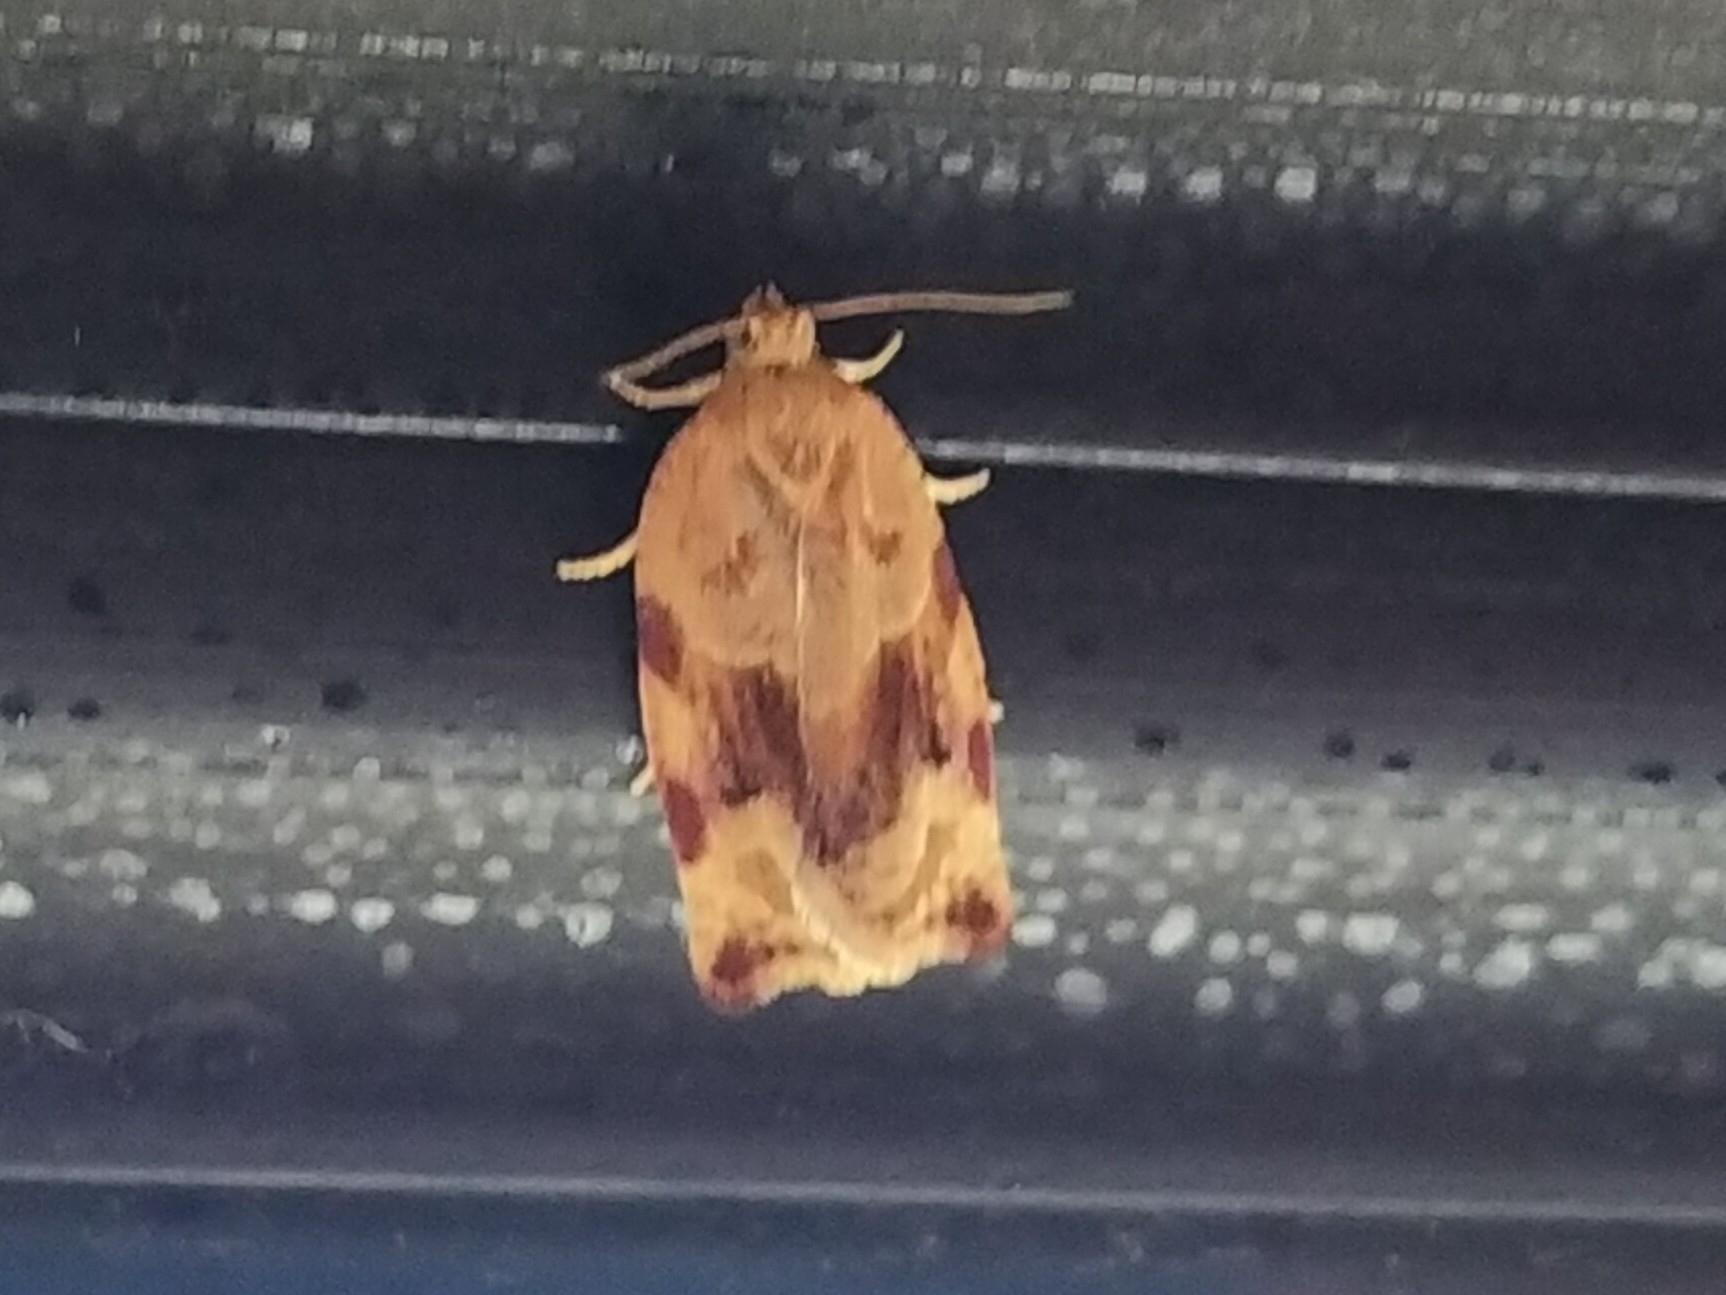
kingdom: Animalia
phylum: Arthropoda
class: Insecta
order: Lepidoptera
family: Tortricidae
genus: Archips
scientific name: Archips xylosteana
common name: Variegated golden tortrix
